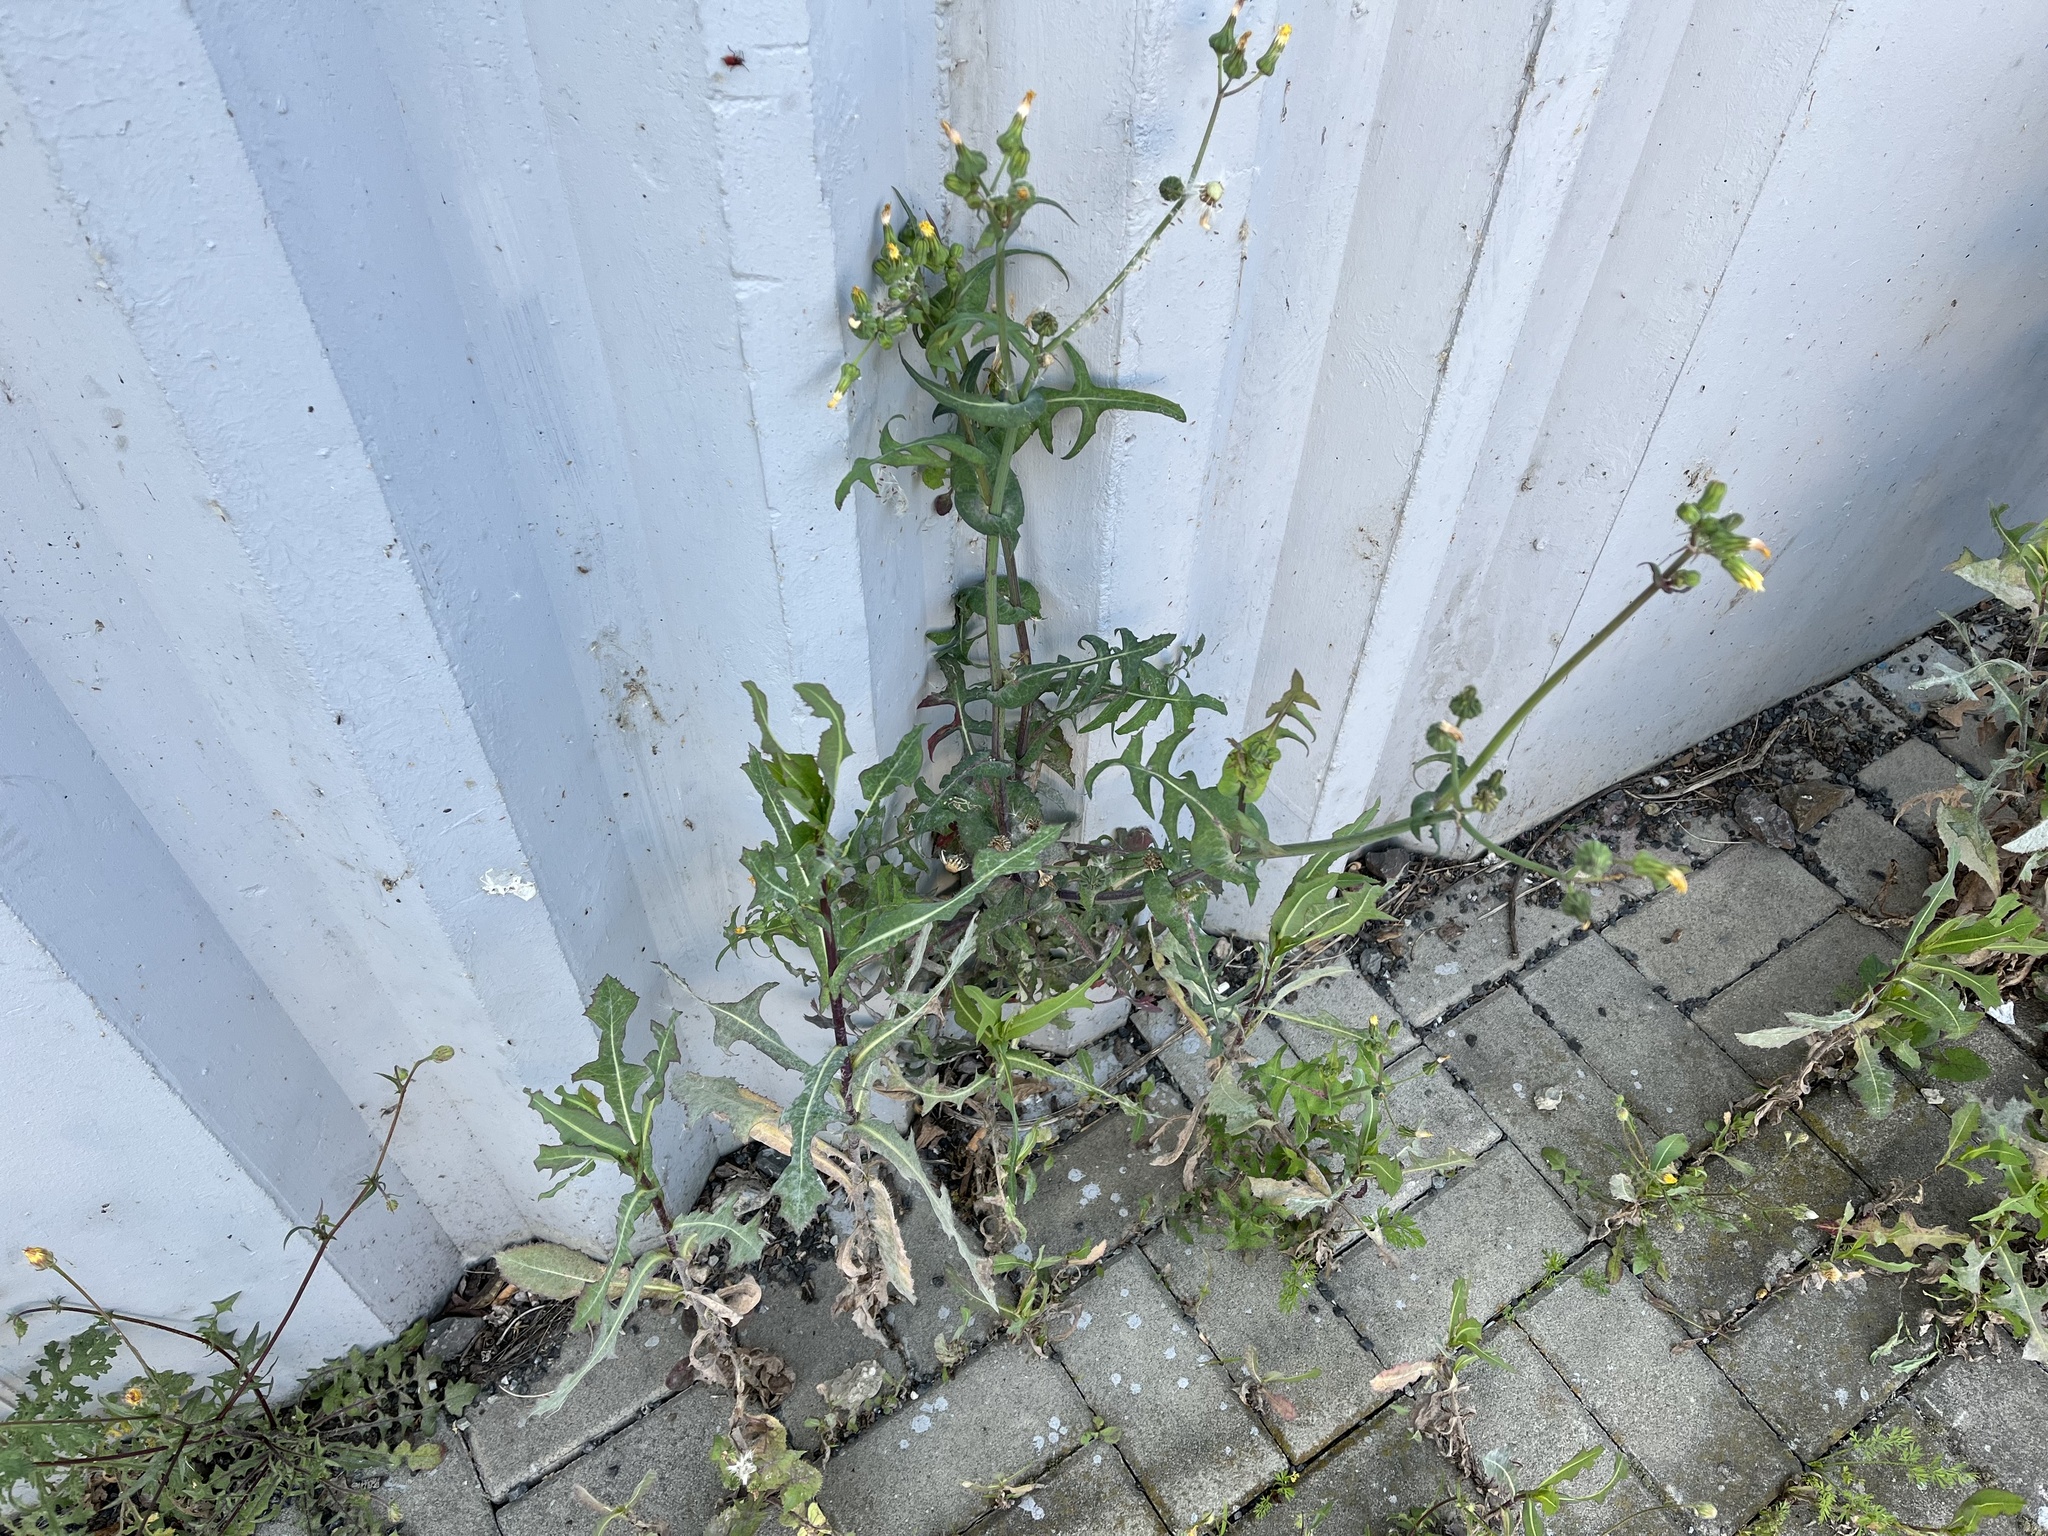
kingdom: Plantae
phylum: Tracheophyta
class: Magnoliopsida
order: Asterales
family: Asteraceae
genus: Sonchus
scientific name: Sonchus oleraceus
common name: Common sowthistle
